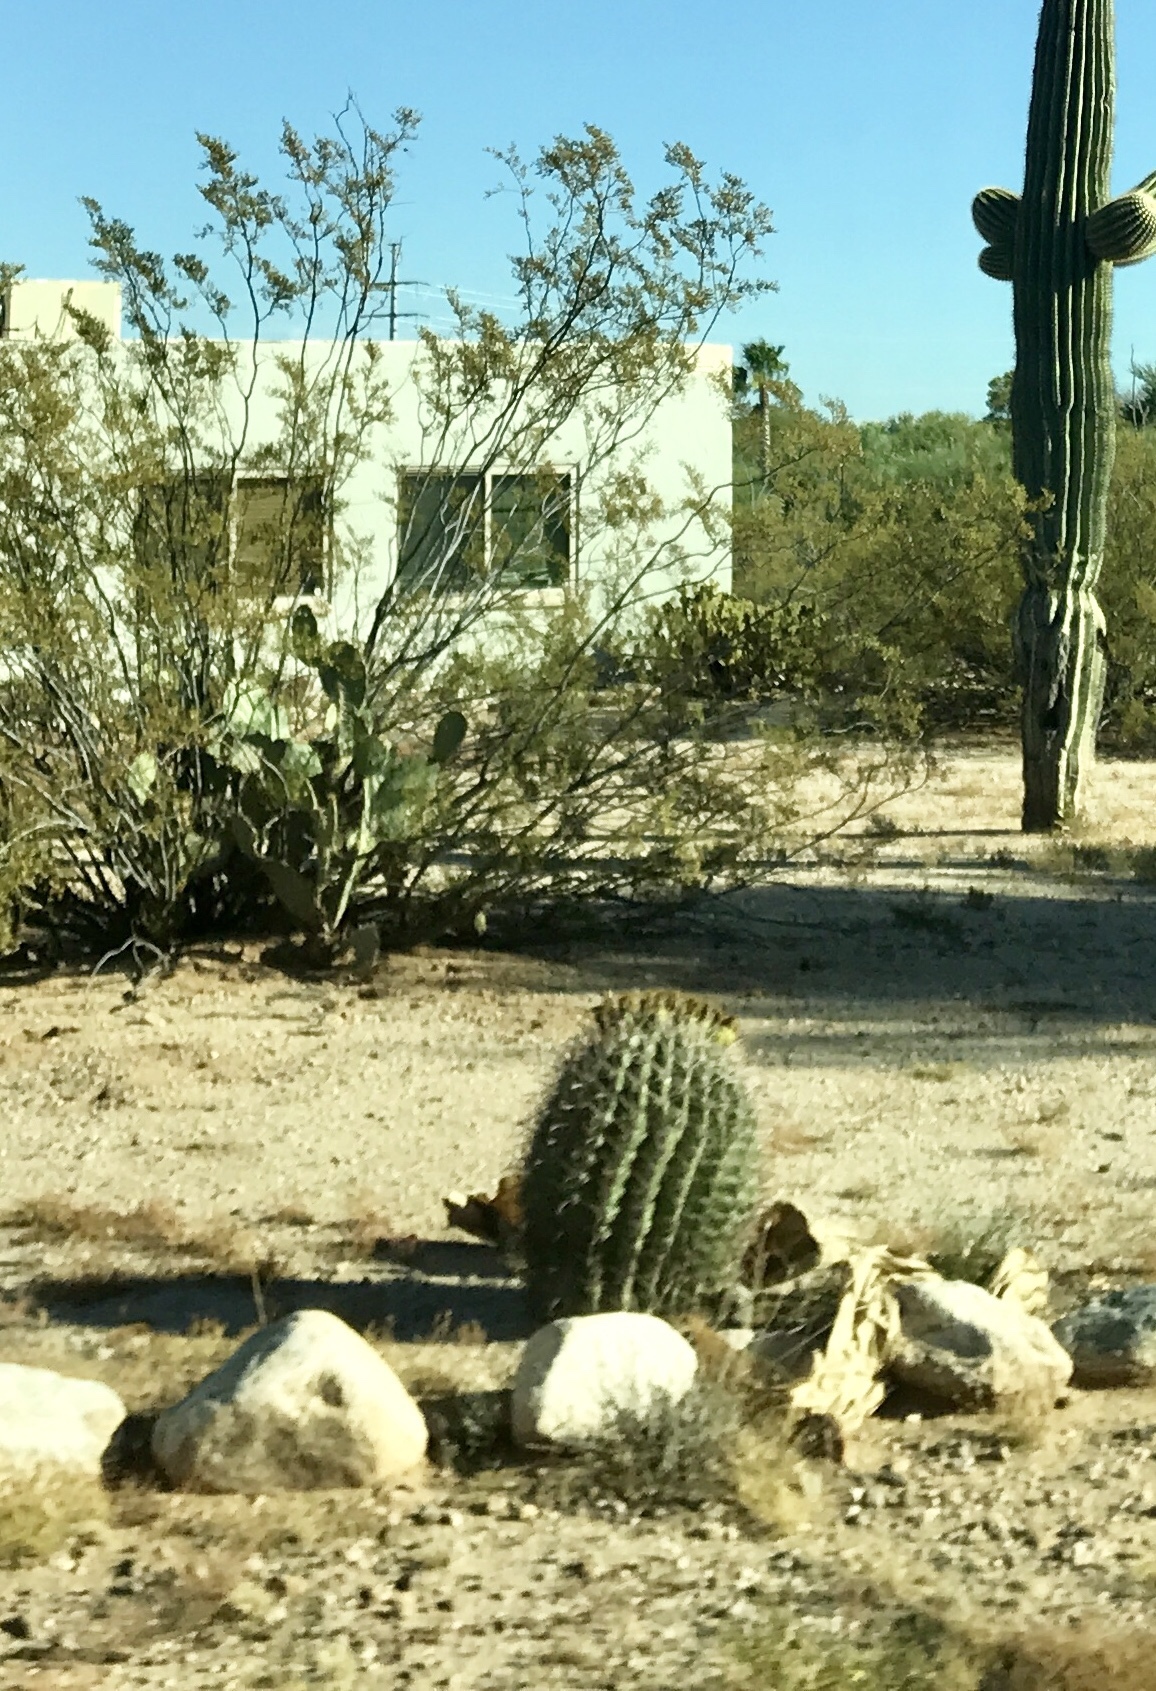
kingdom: Plantae
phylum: Tracheophyta
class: Magnoliopsida
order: Caryophyllales
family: Cactaceae
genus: Ferocactus
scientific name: Ferocactus wislizeni
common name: Candy barrel cactus
